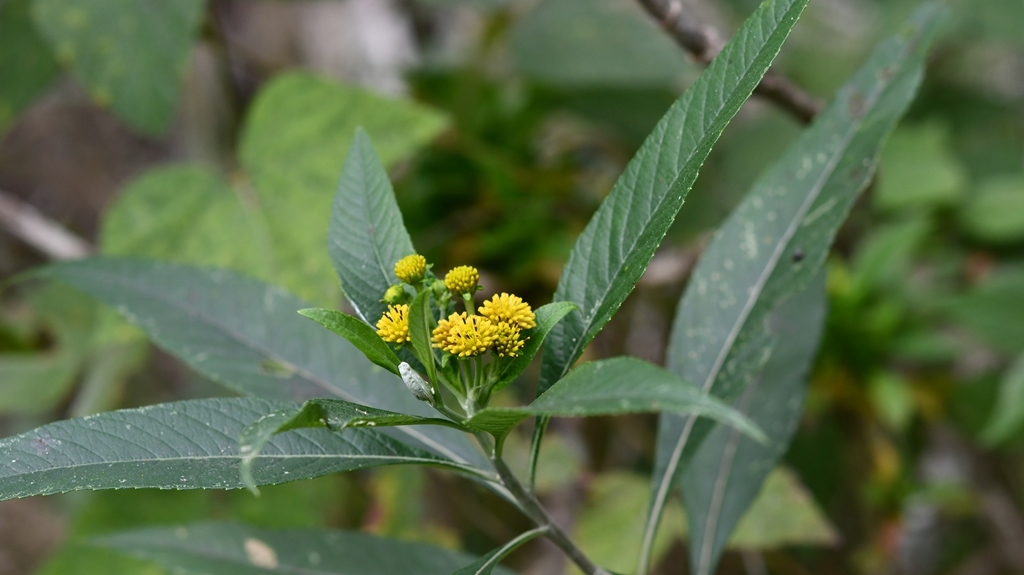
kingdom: Plantae
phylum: Tracheophyta
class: Magnoliopsida
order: Asterales
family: Asteraceae
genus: Verbesina
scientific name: Verbesina hypargyrea
